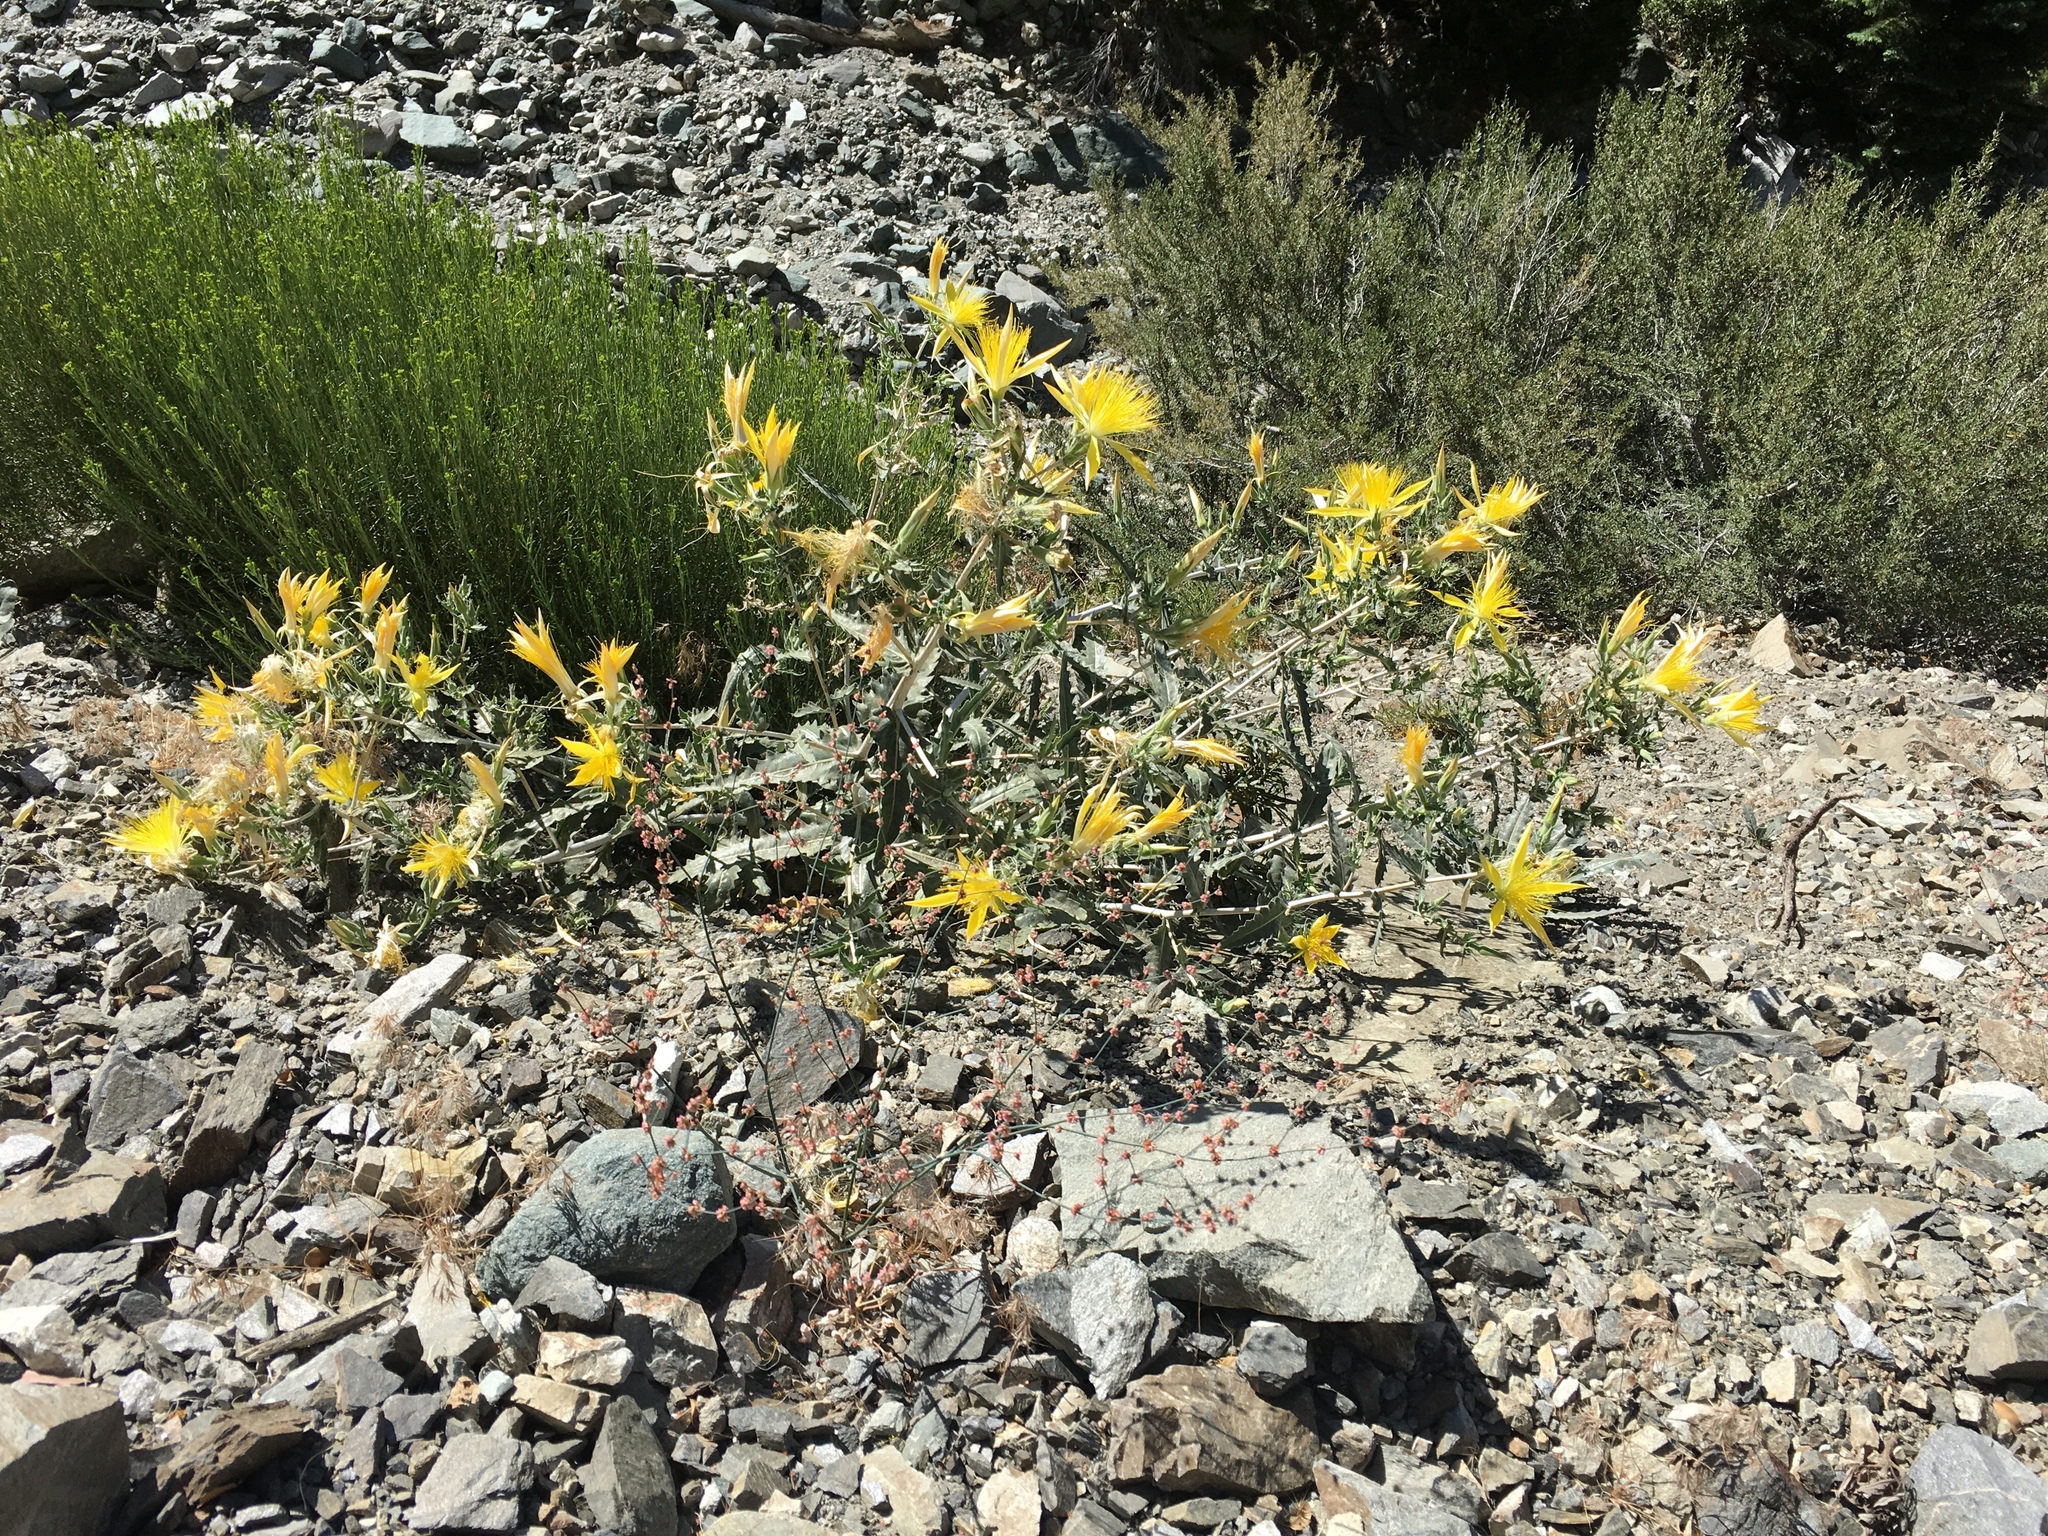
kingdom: Plantae
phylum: Tracheophyta
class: Magnoliopsida
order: Cornales
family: Loasaceae
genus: Mentzelia
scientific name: Mentzelia laevicaulis
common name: Smooth-stem blazingstar
